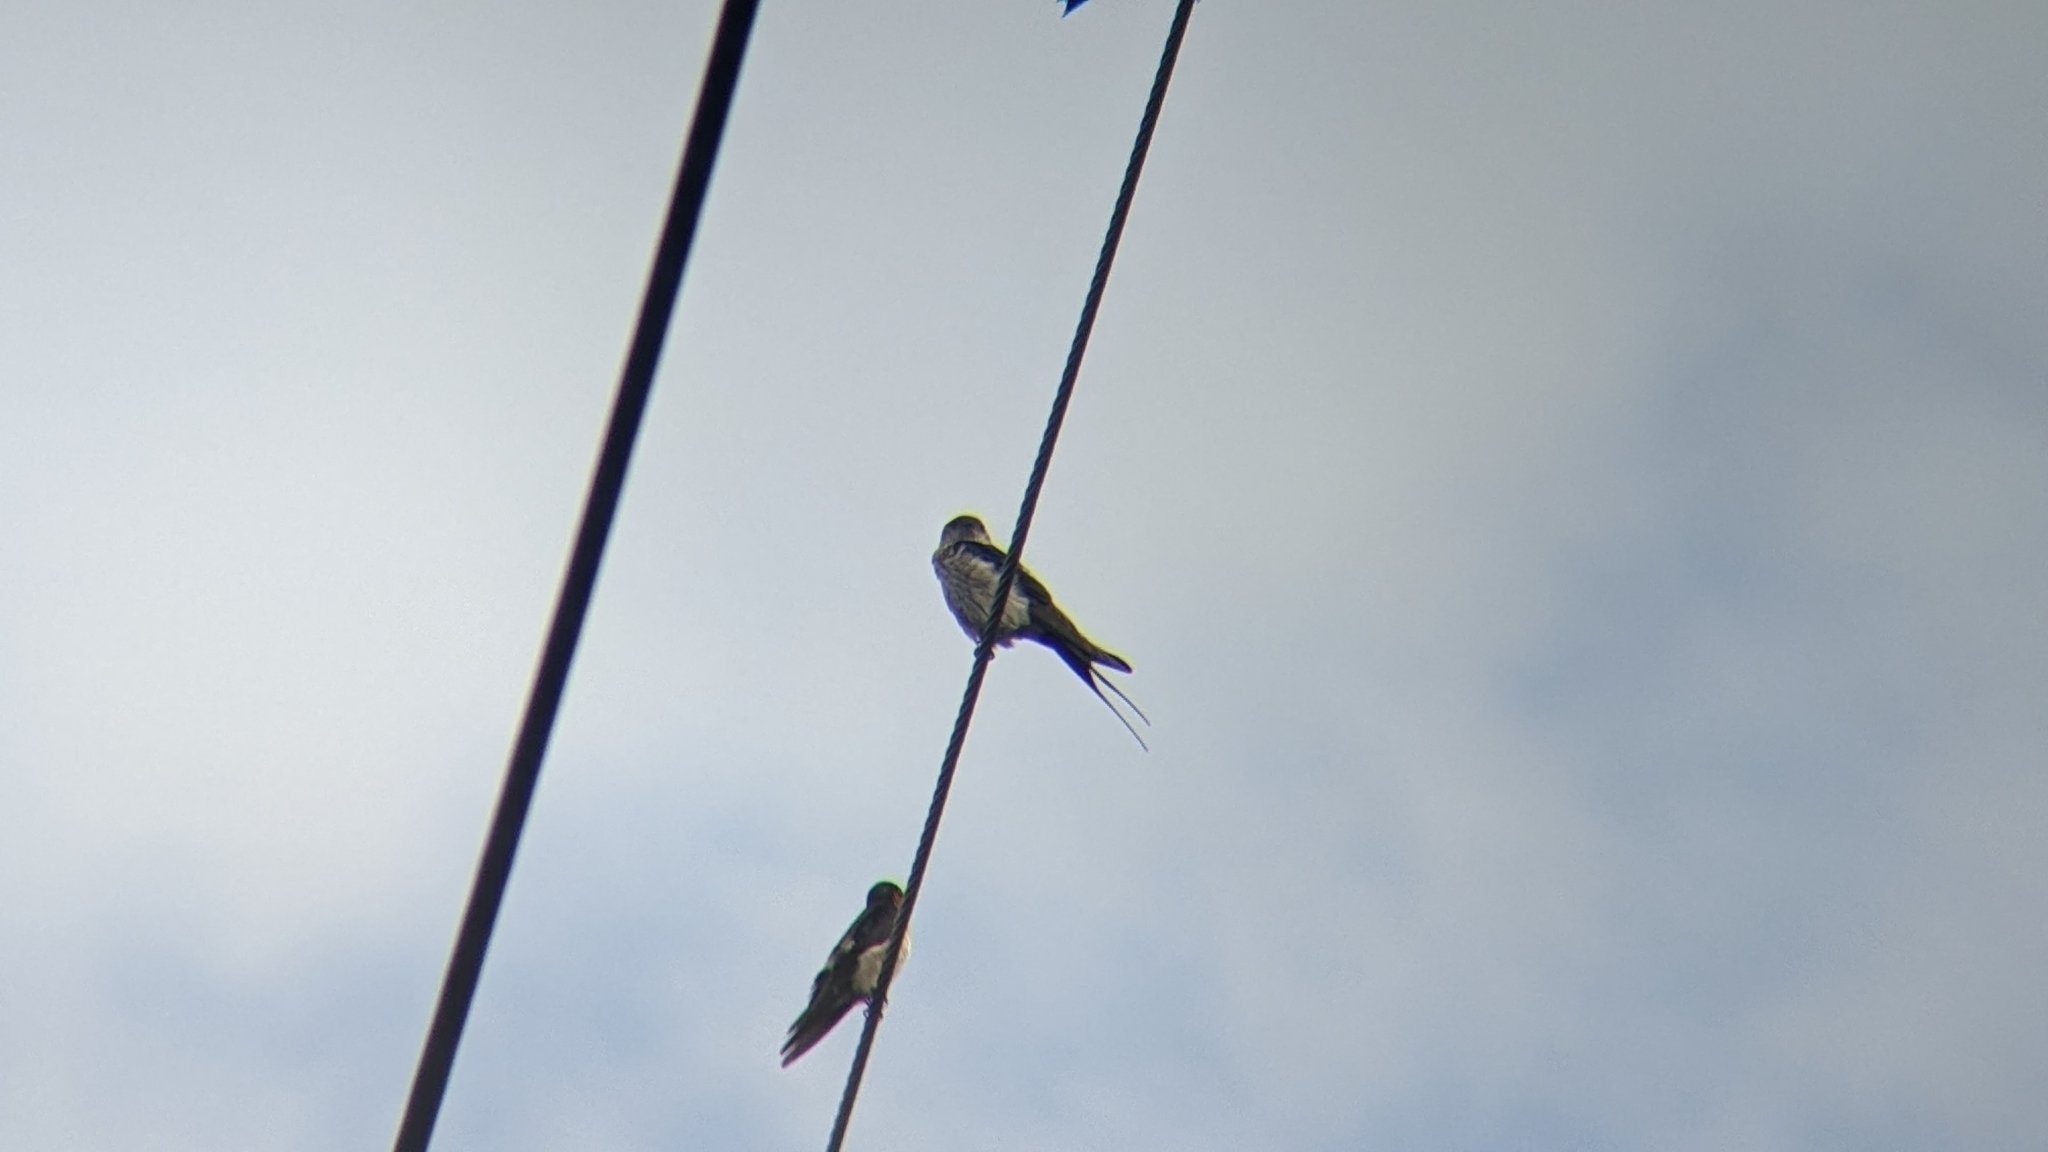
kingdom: Animalia
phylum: Chordata
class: Aves
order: Passeriformes
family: Hirundinidae
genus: Cecropis
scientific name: Cecropis striolata
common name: Striated swallow
